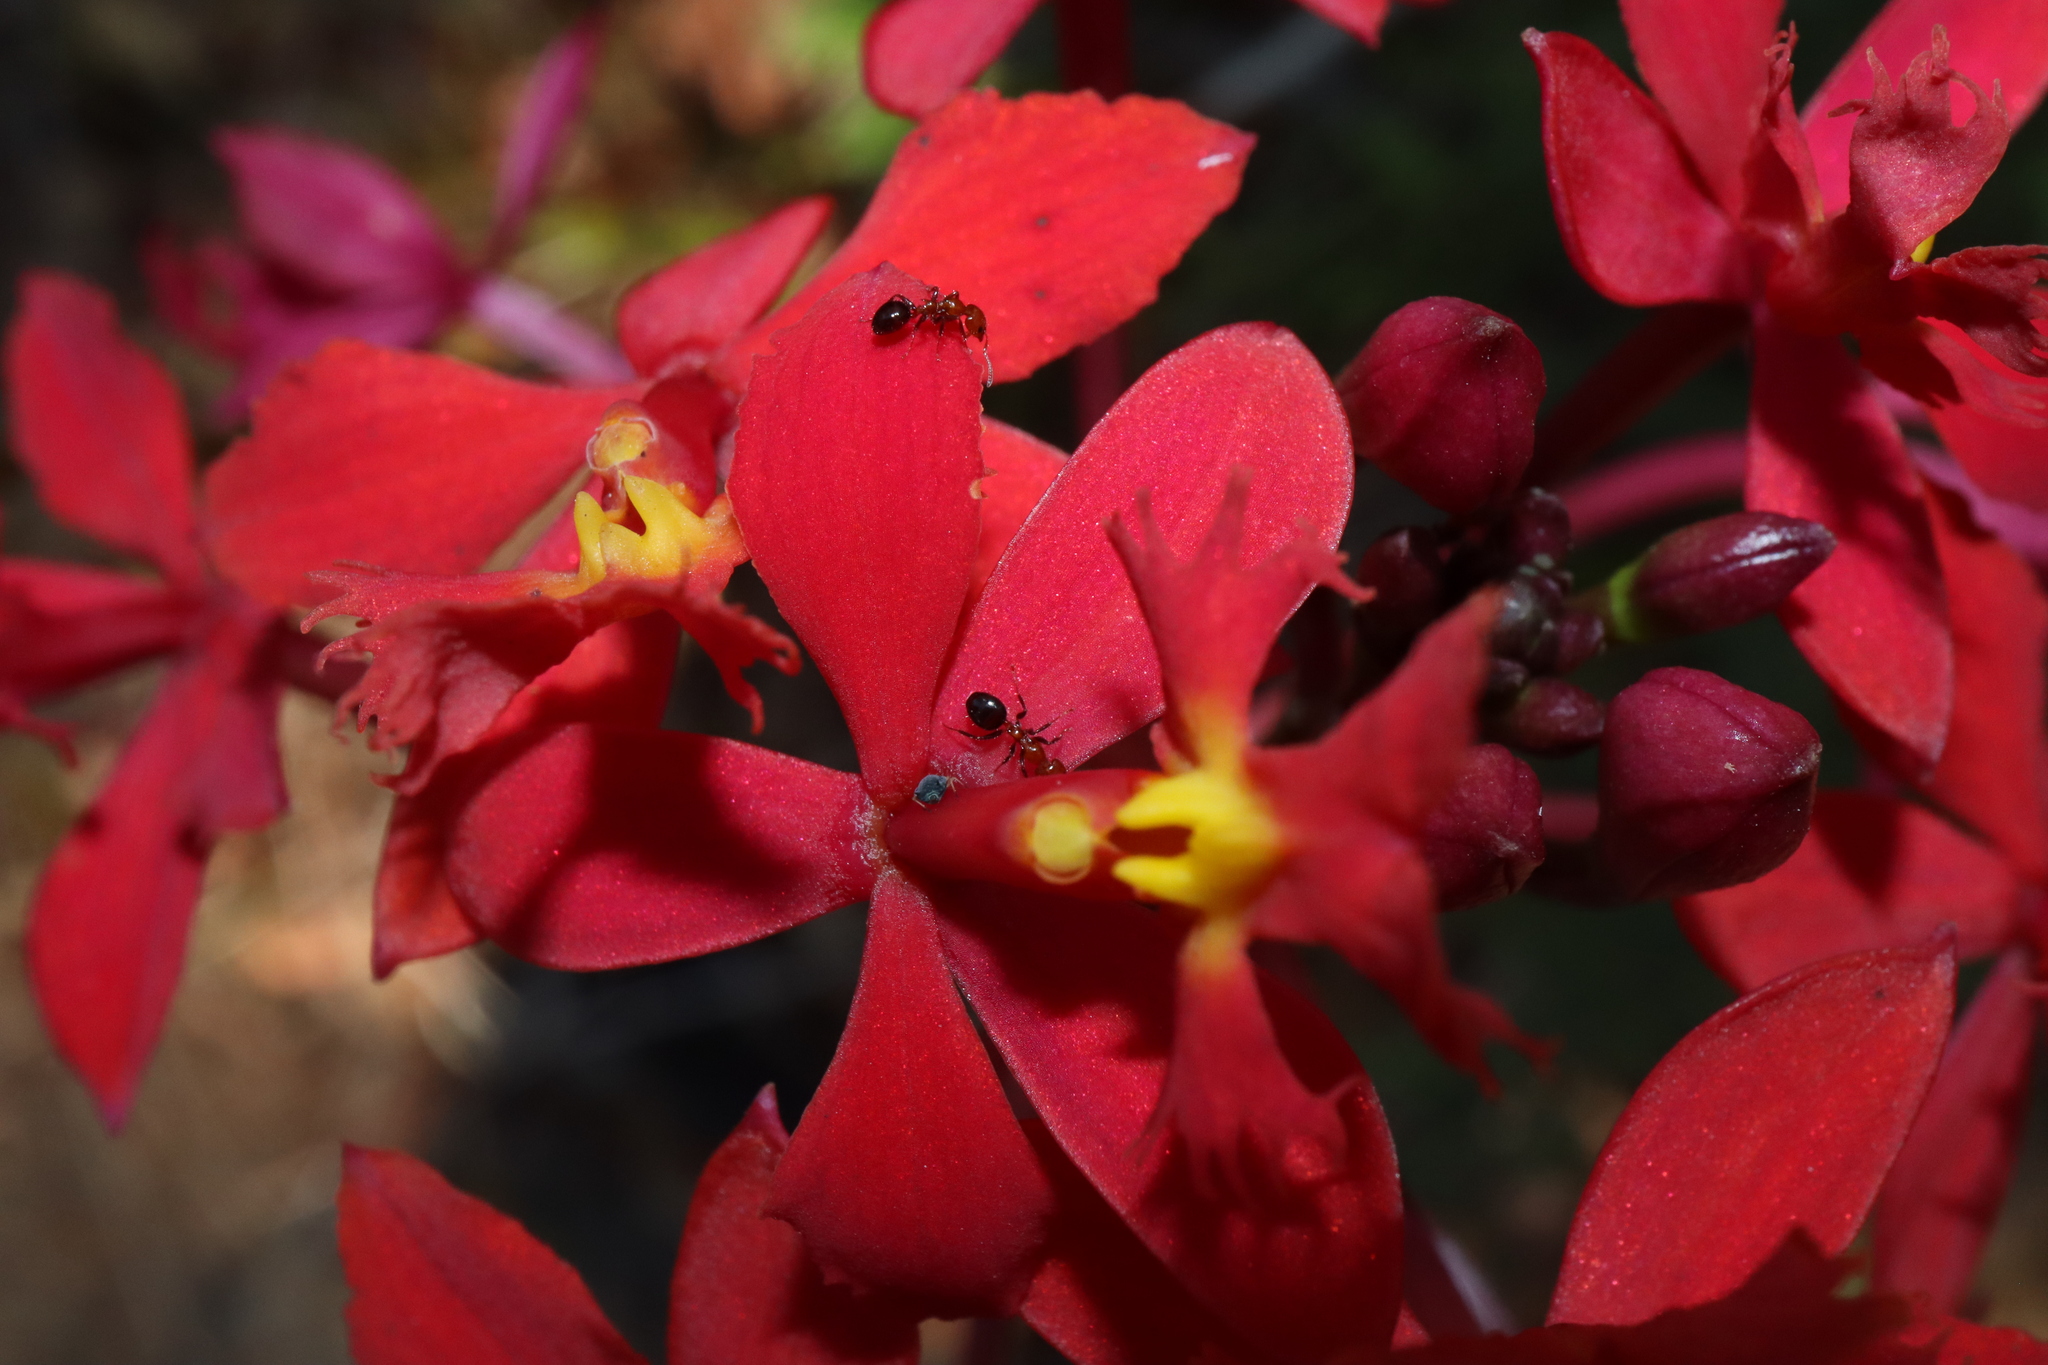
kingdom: Animalia
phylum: Arthropoda
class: Insecta
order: Hymenoptera
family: Formicidae
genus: Froggattella
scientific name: Froggattella kirbii
